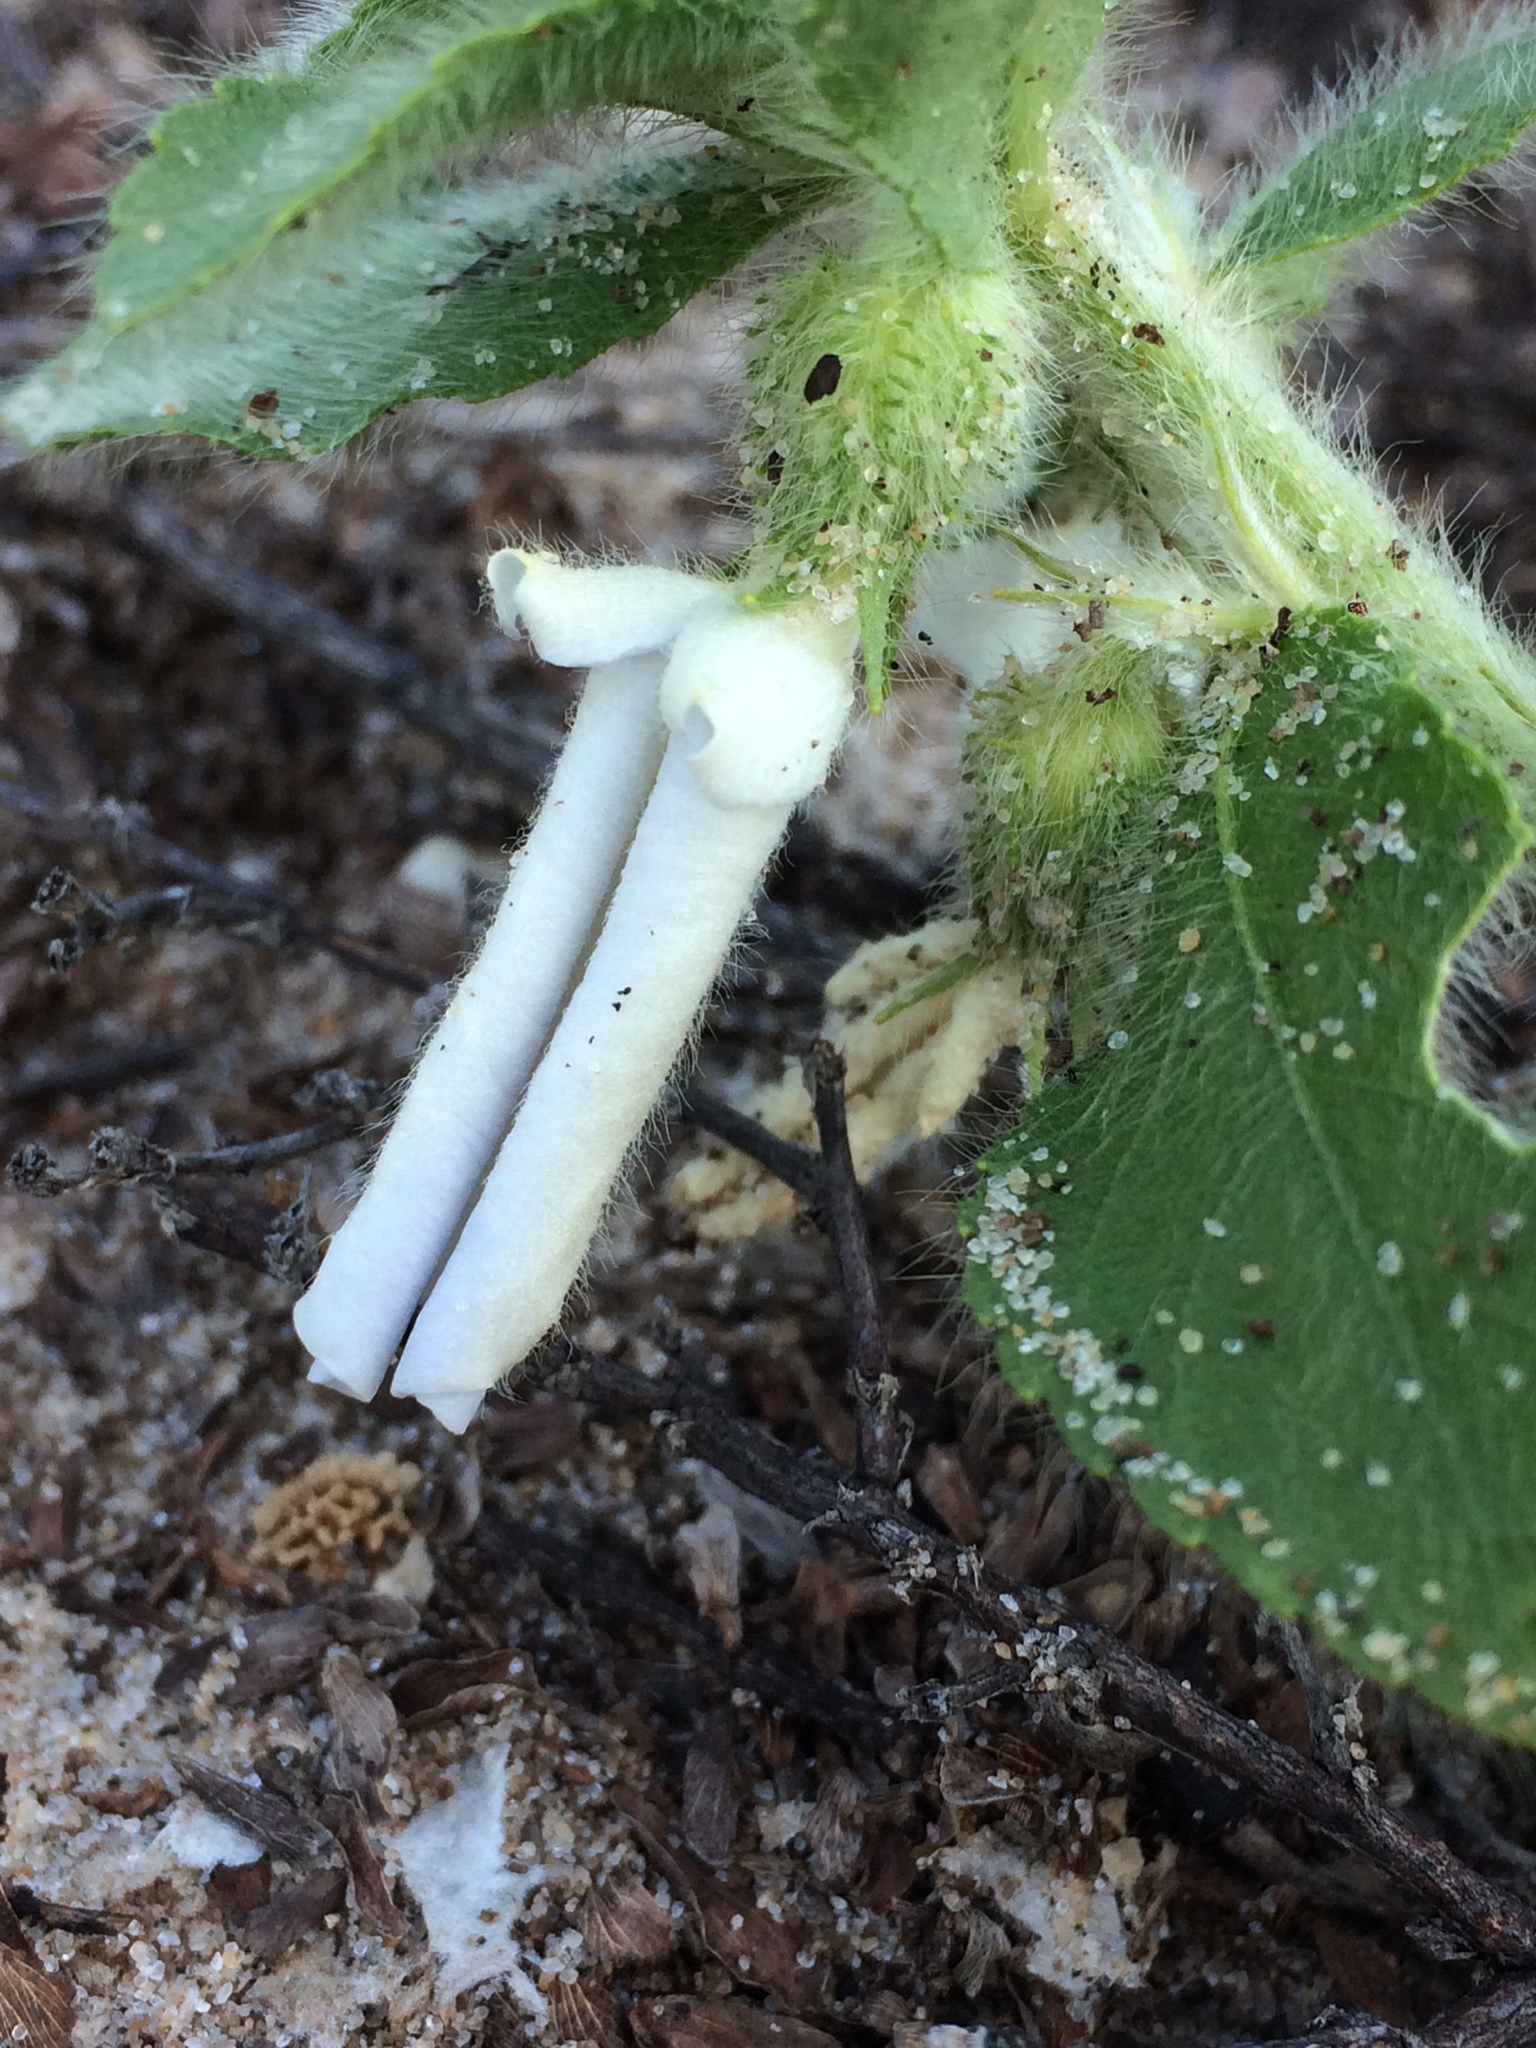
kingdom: Plantae
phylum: Tracheophyta
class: Magnoliopsida
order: Malpighiales
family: Violaceae
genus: Pombalia
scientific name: Pombalia calceolaria
